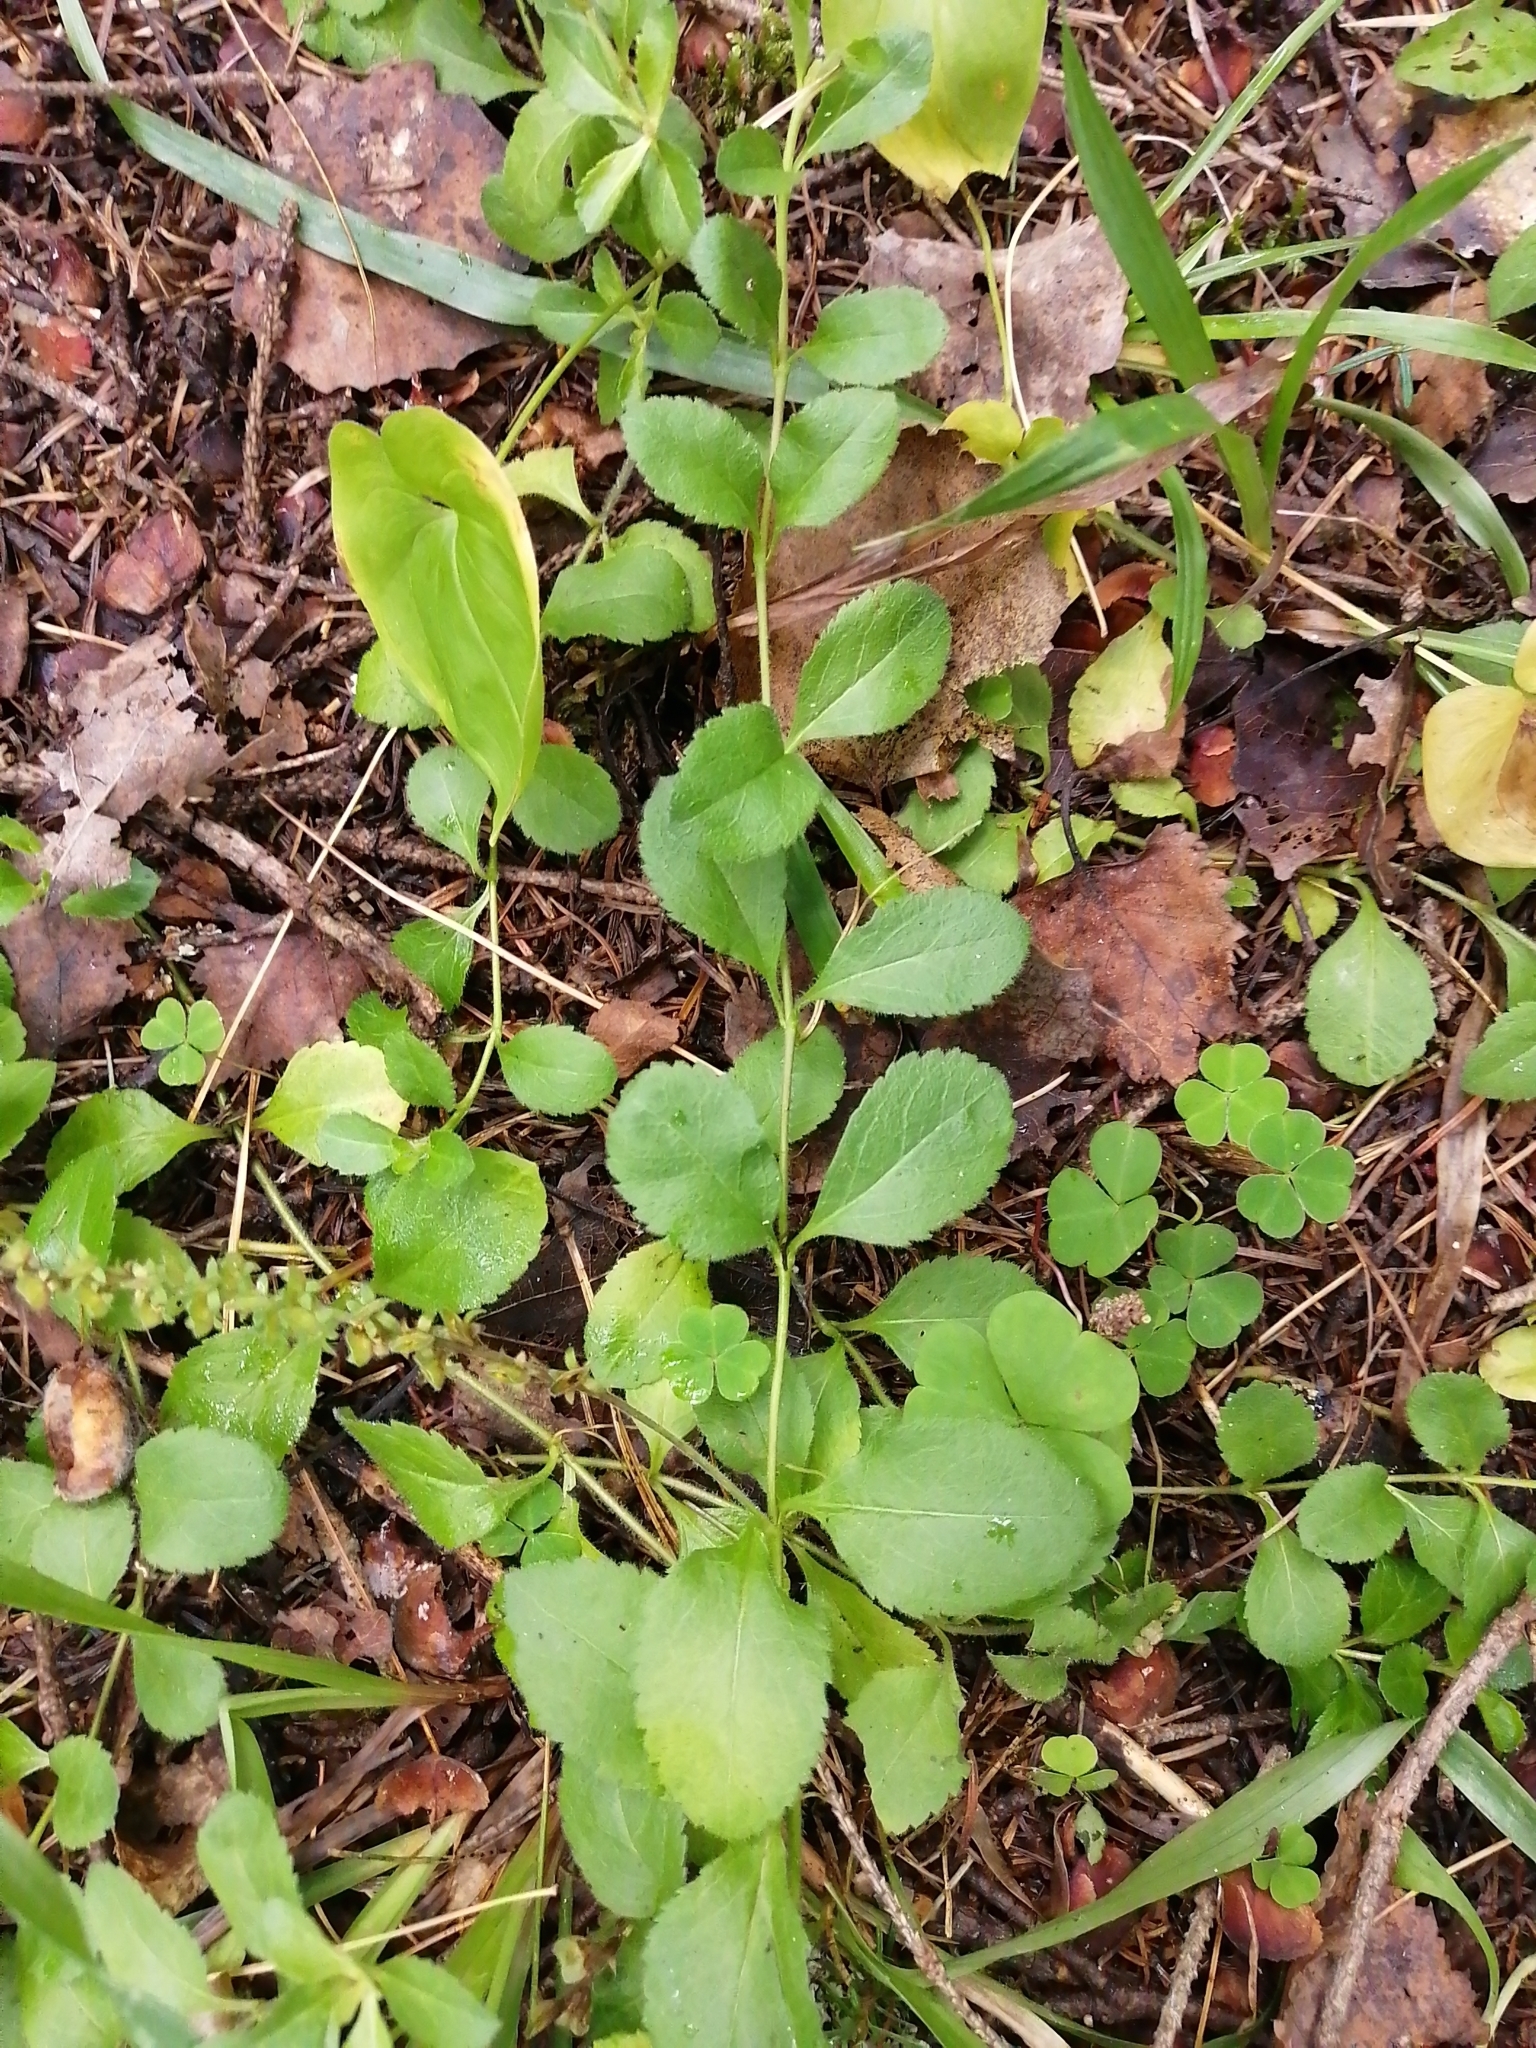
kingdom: Plantae
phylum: Tracheophyta
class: Magnoliopsida
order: Lamiales
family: Plantaginaceae
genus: Veronica
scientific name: Veronica officinalis
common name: Common speedwell
